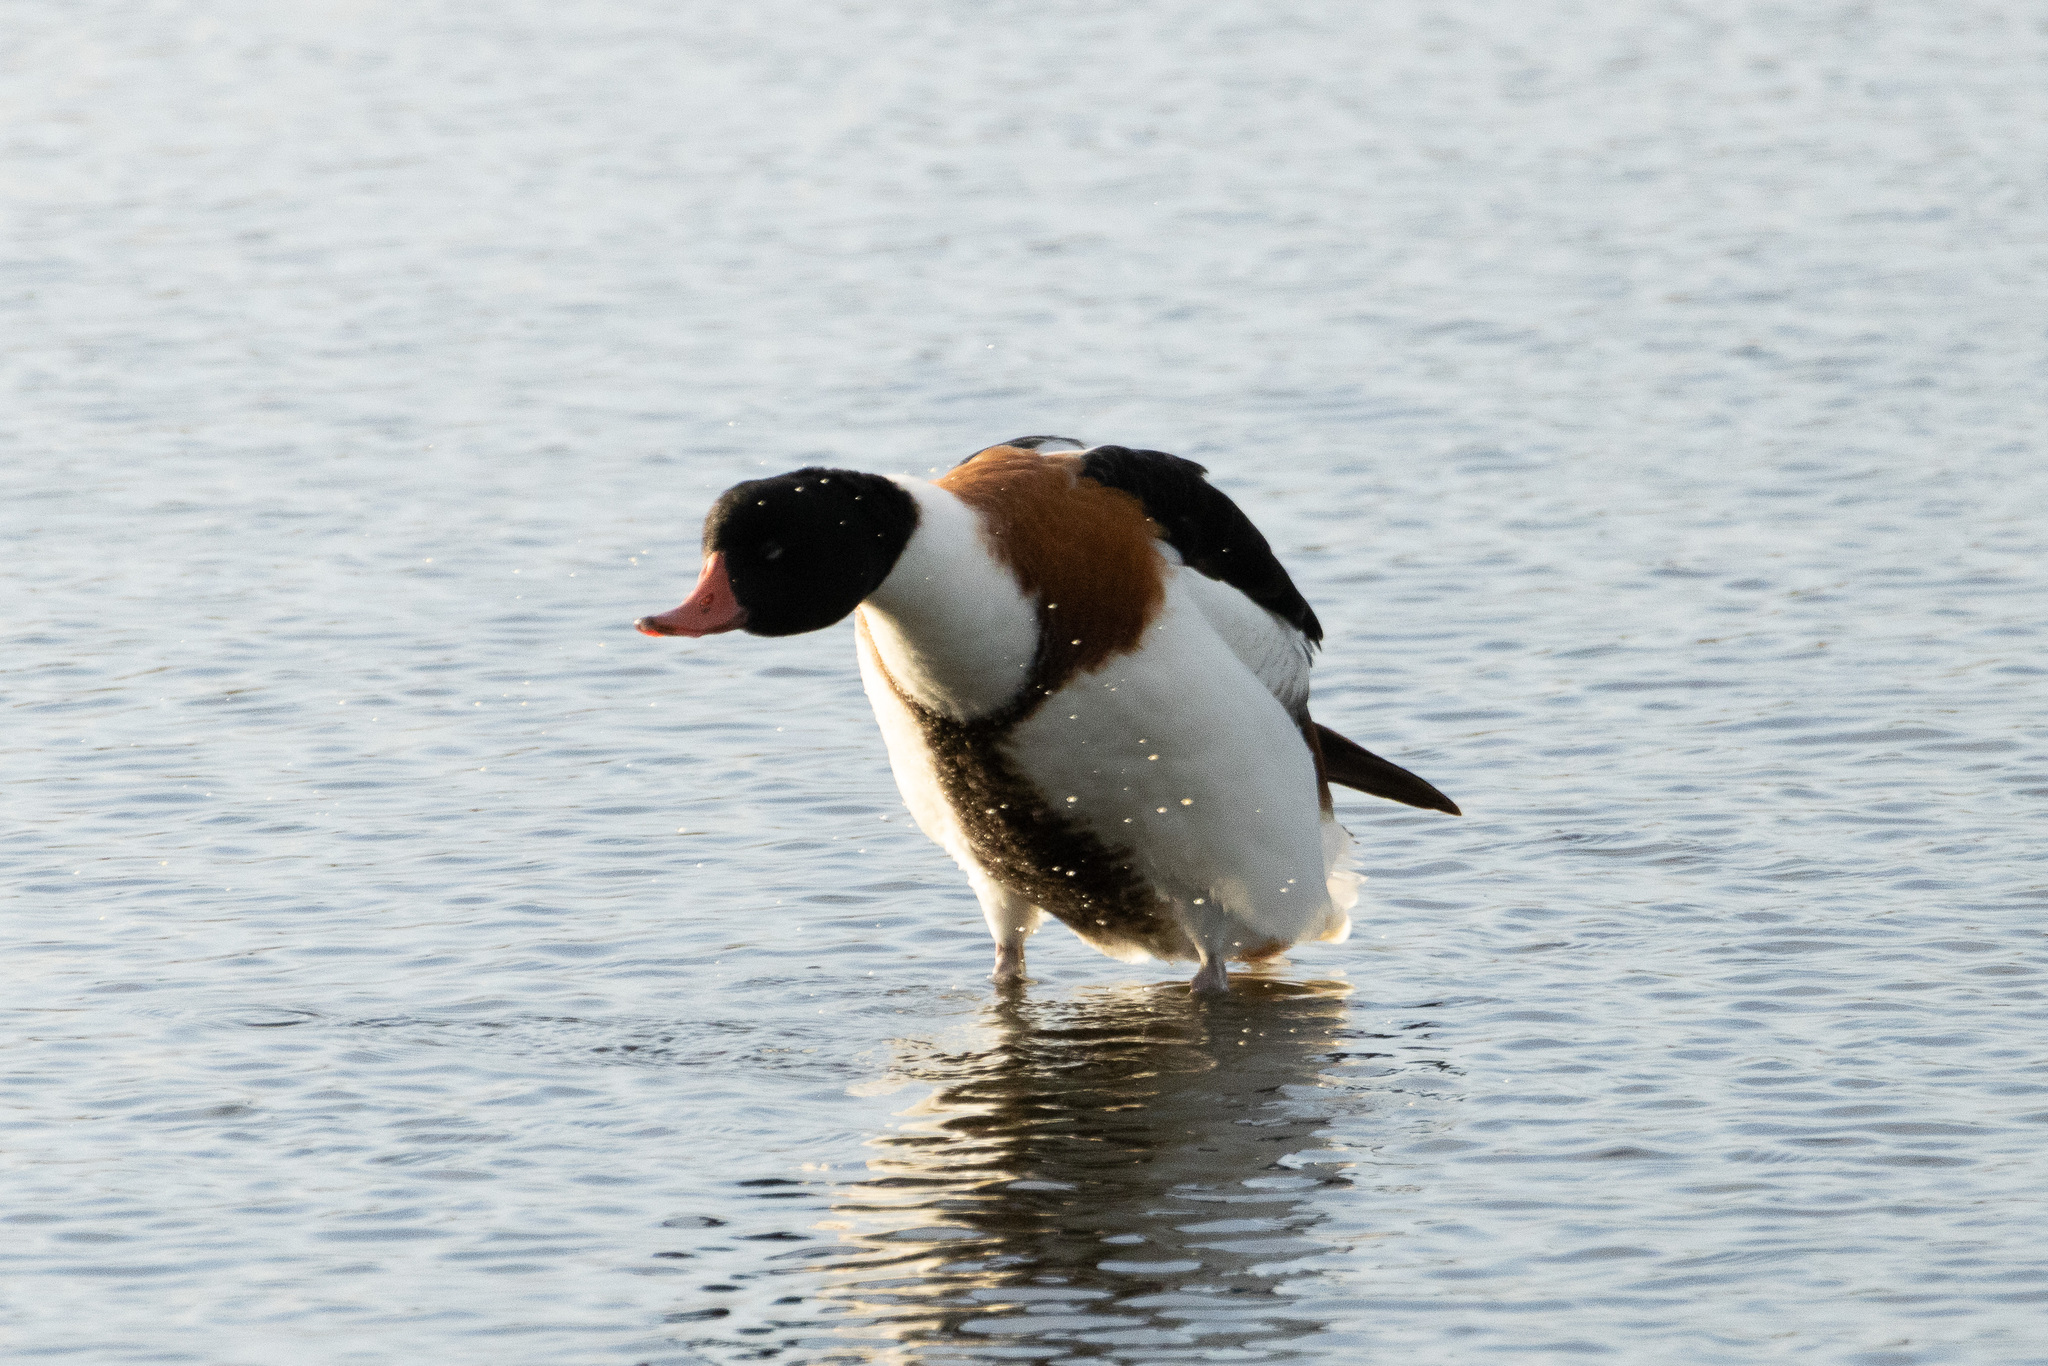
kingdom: Animalia
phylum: Chordata
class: Aves
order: Anseriformes
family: Anatidae
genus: Tadorna
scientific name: Tadorna tadorna
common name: Common shelduck
